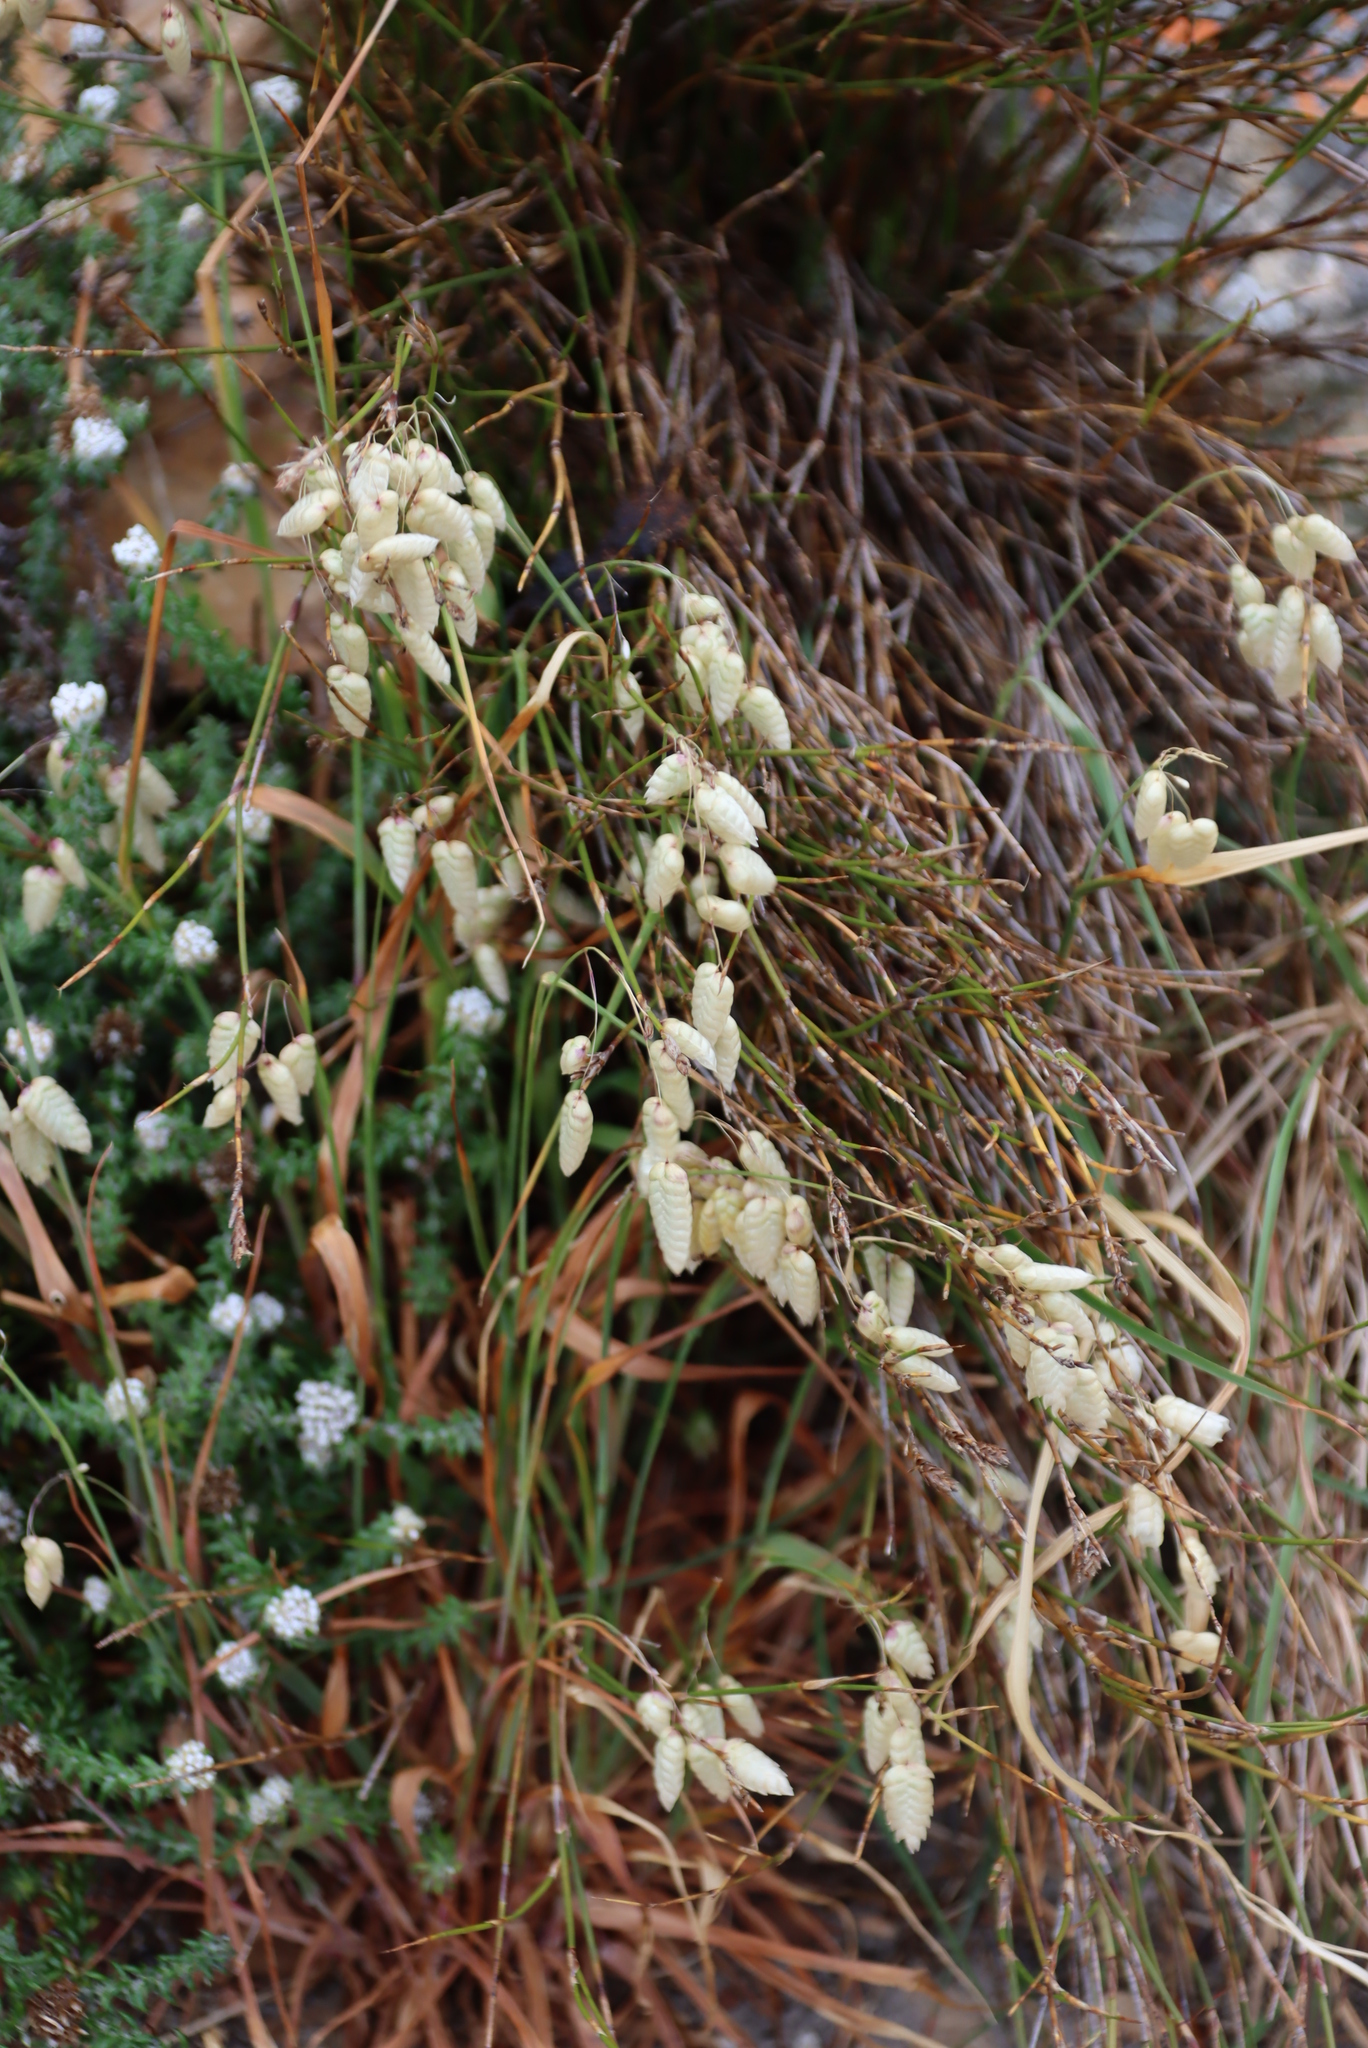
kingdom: Plantae
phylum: Tracheophyta
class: Liliopsida
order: Poales
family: Poaceae
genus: Briza
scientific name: Briza maxima
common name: Big quakinggrass
